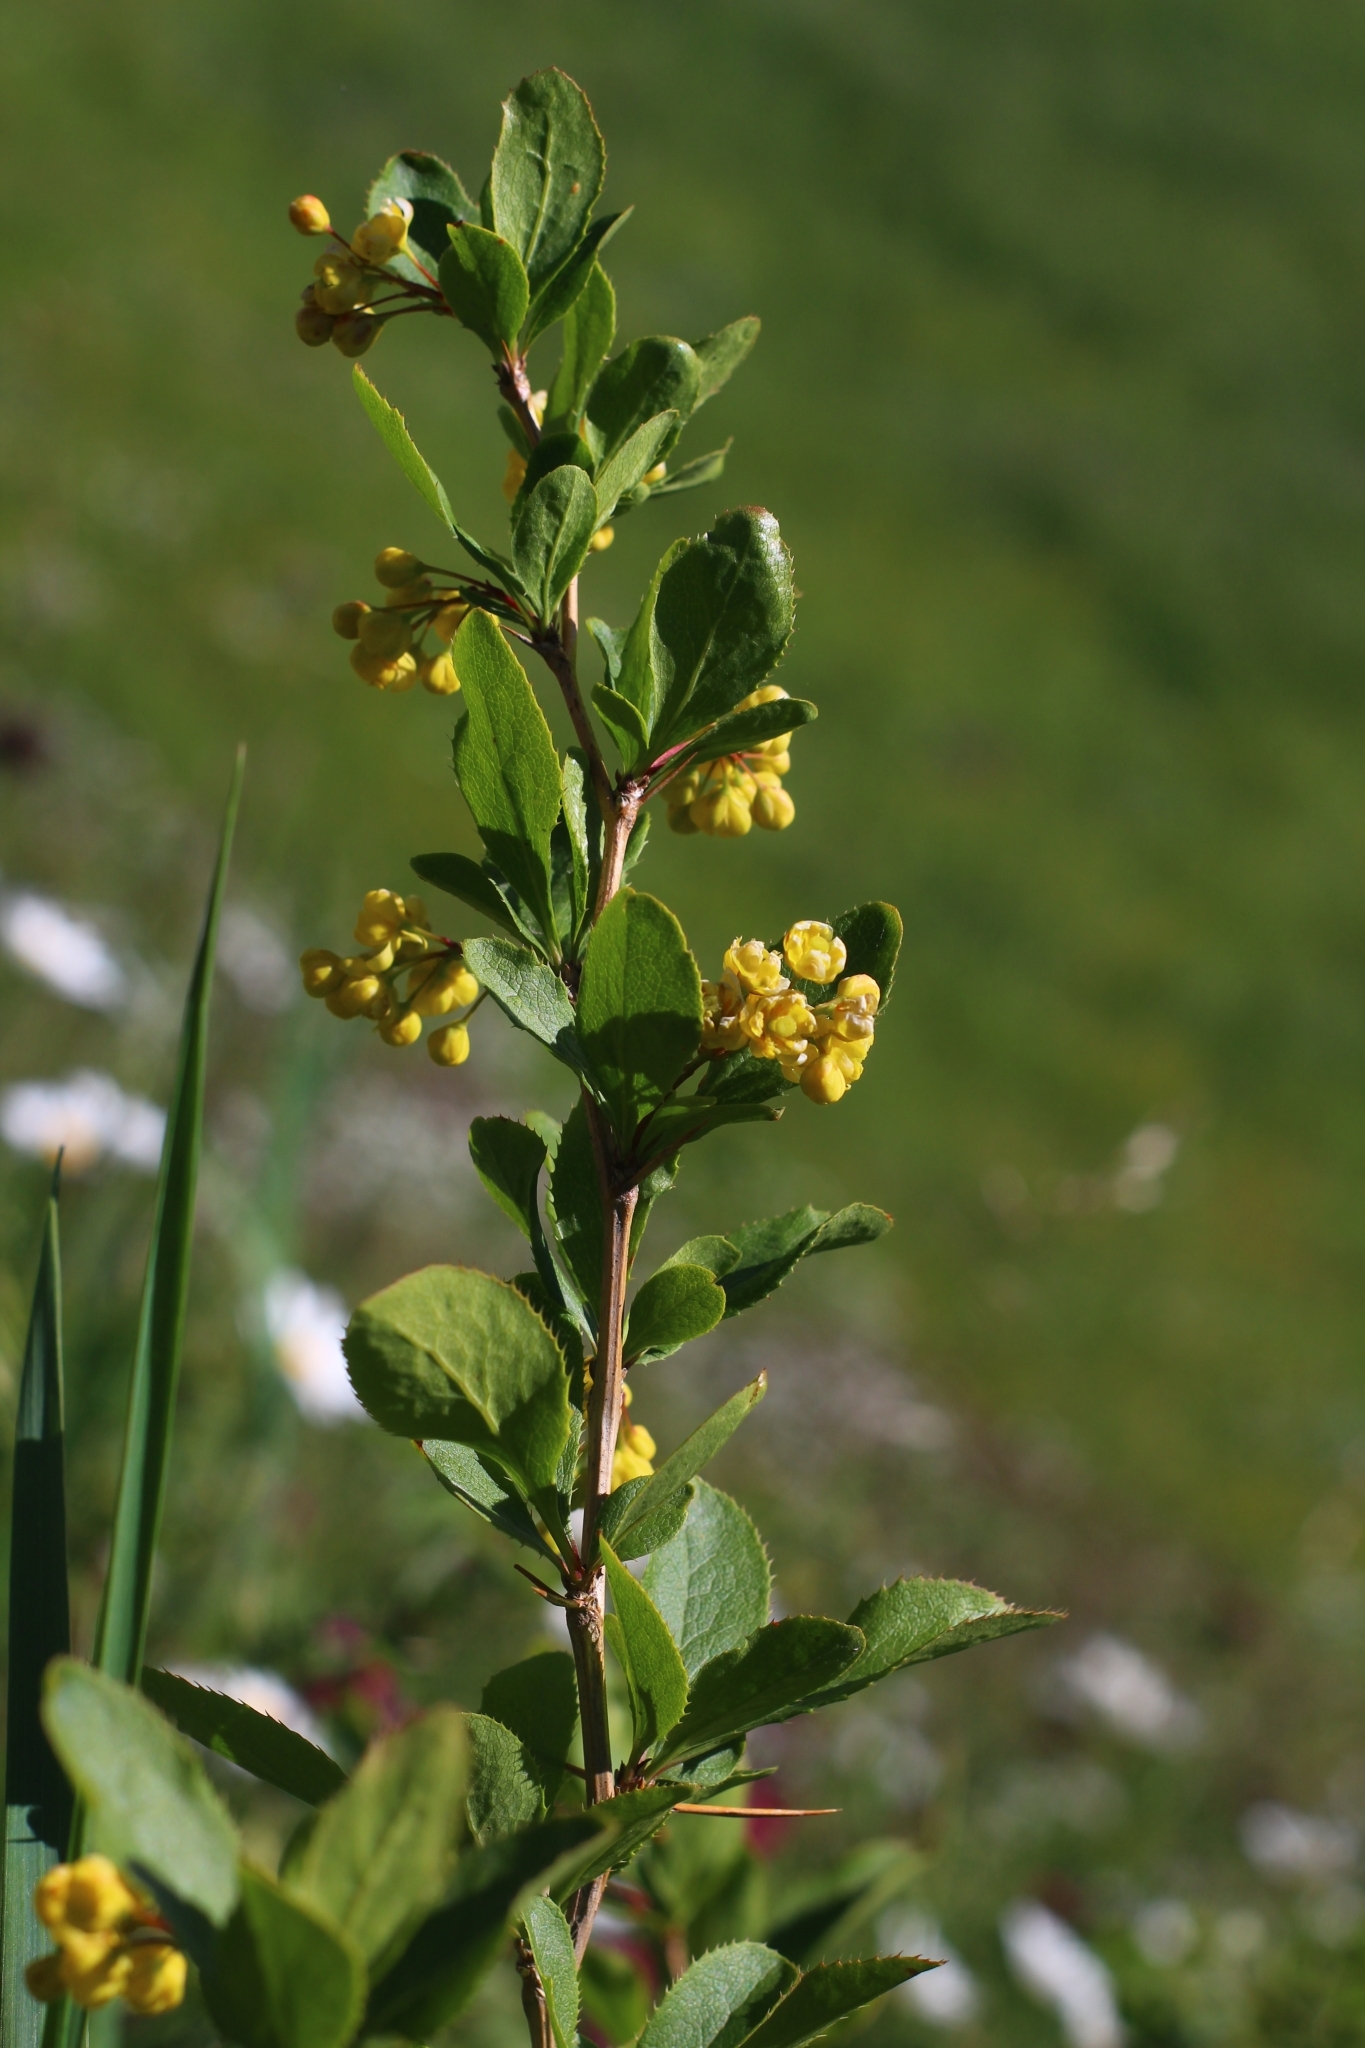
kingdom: Plantae
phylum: Tracheophyta
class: Magnoliopsida
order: Ranunculales
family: Berberidaceae
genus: Berberis
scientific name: Berberis vulgaris
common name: Barberry
